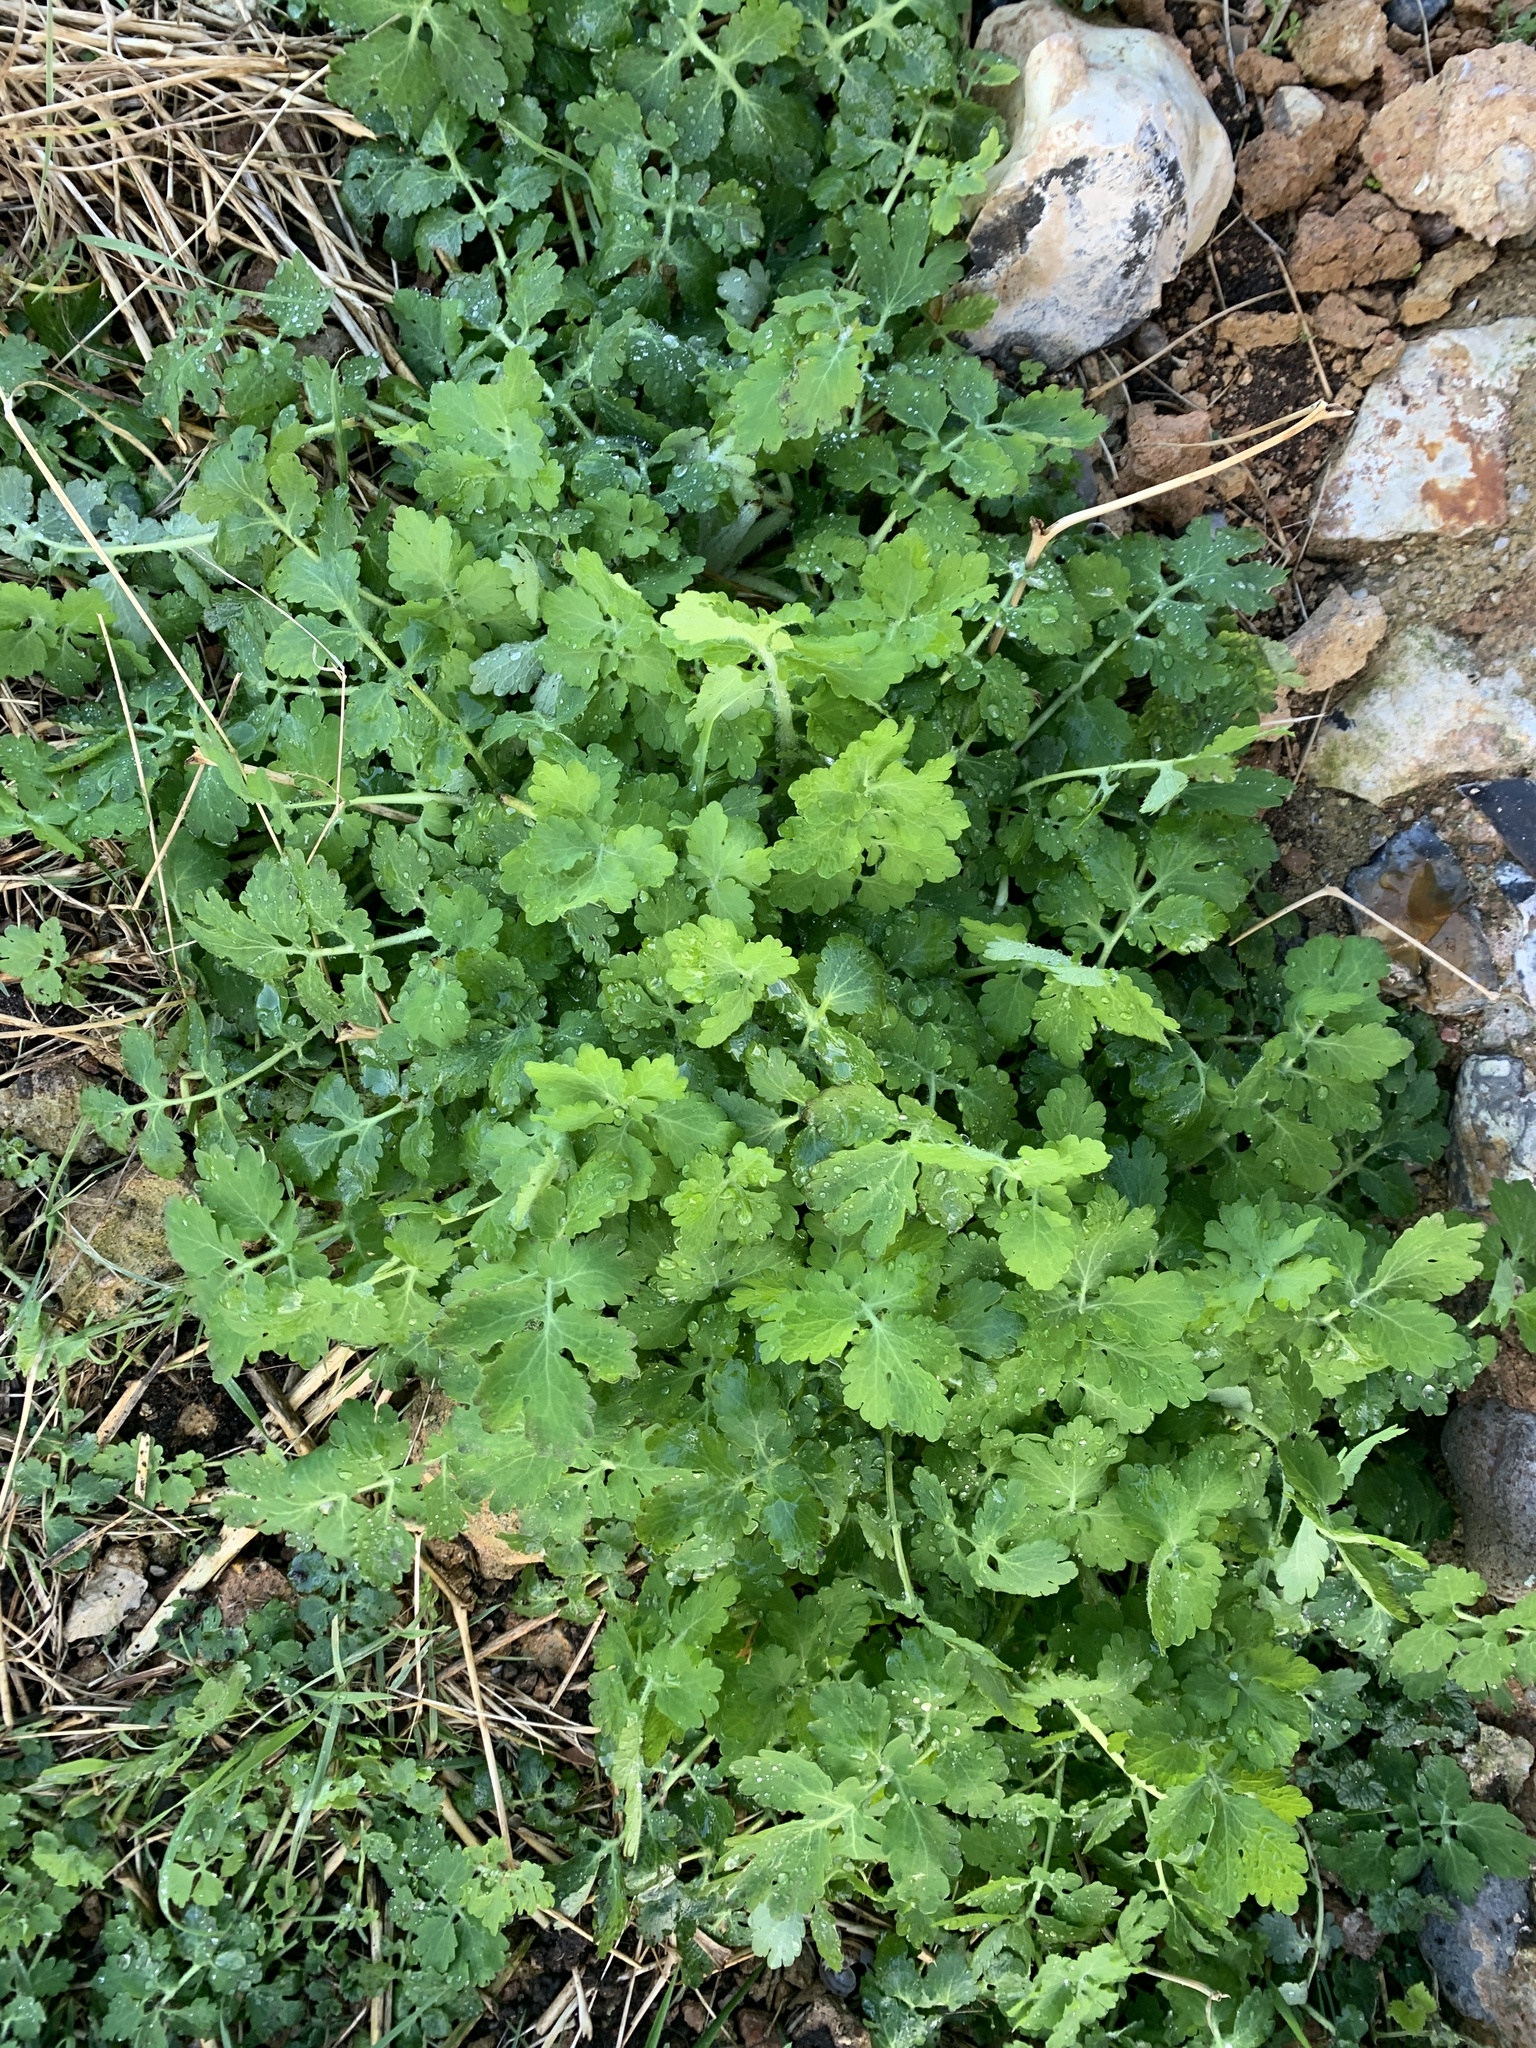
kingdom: Plantae
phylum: Tracheophyta
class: Magnoliopsida
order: Ranunculales
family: Papaveraceae
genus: Chelidonium
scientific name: Chelidonium majus
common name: Greater celandine
